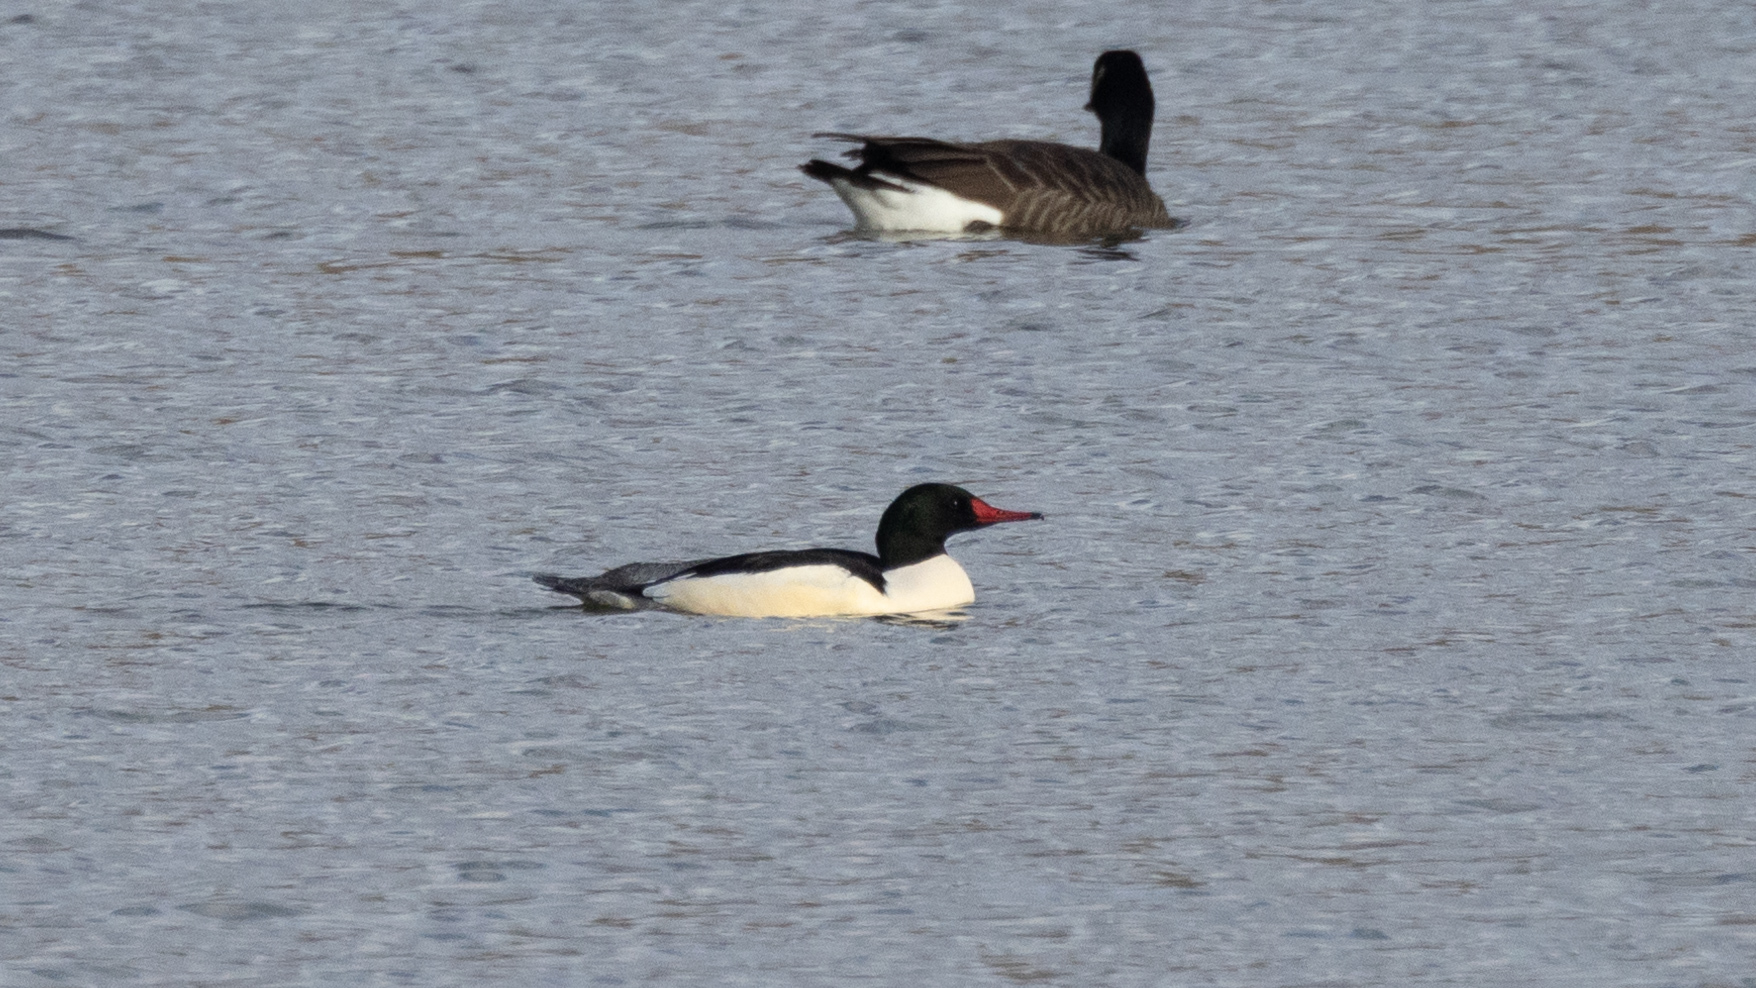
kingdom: Animalia
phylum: Chordata
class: Aves
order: Anseriformes
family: Anatidae
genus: Mergus
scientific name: Mergus merganser
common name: Common merganser
